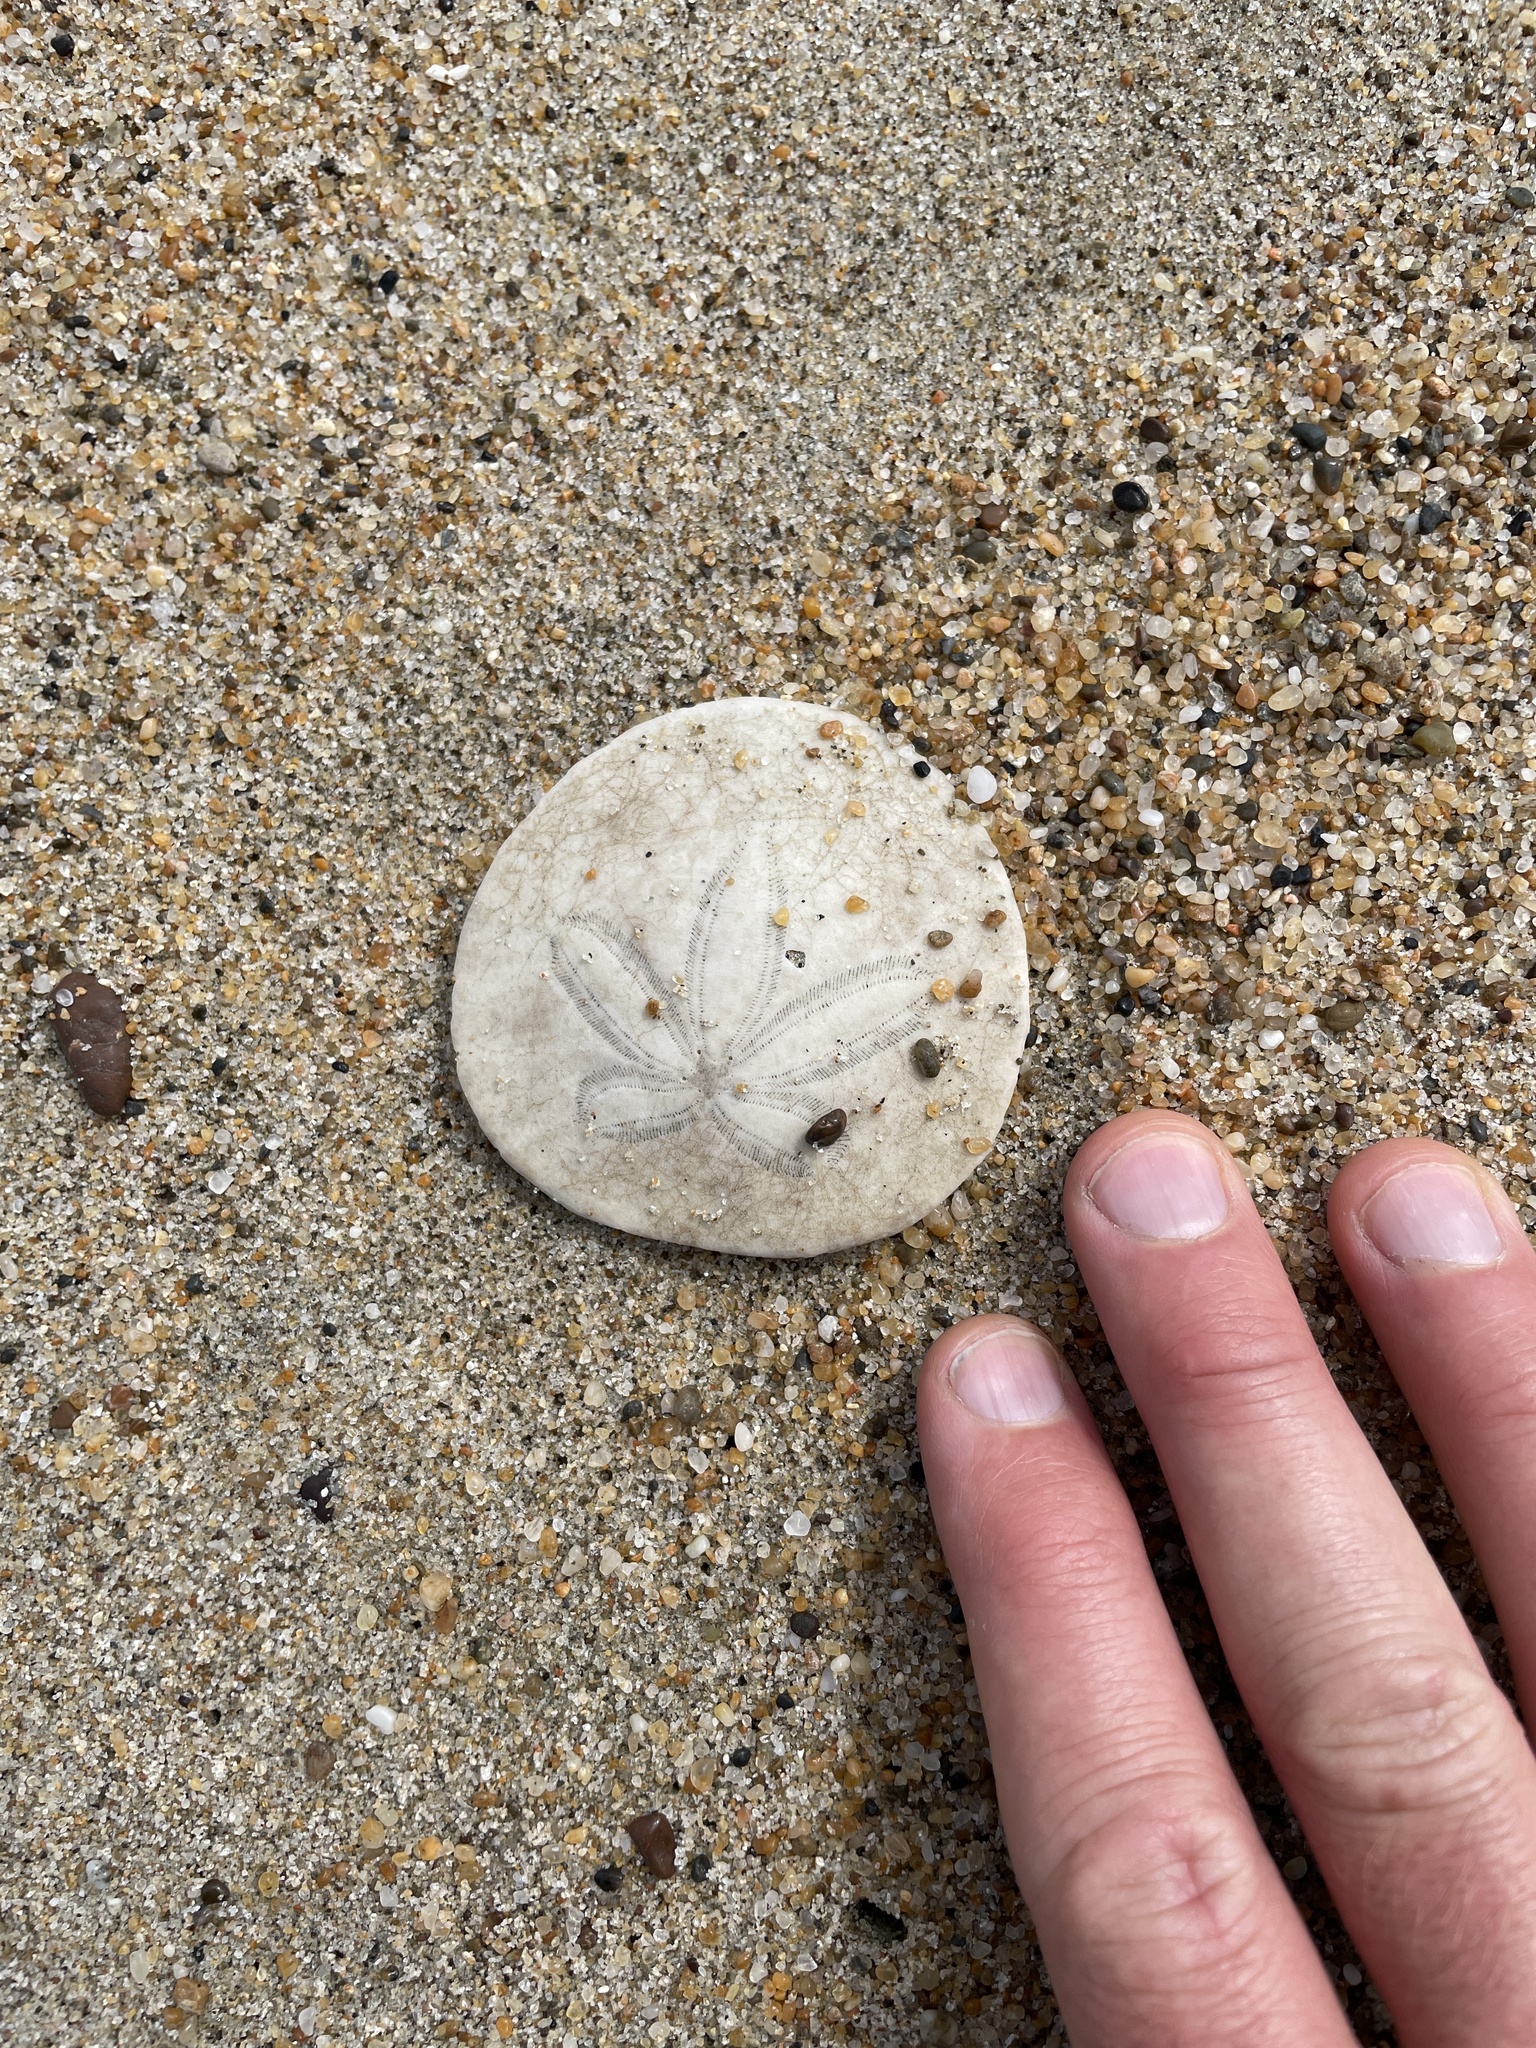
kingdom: Animalia
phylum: Echinodermata
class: Echinoidea
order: Echinolampadacea
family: Dendrasteridae
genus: Dendraster
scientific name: Dendraster excentricus
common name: Eccentric sand dollar sea urchin
